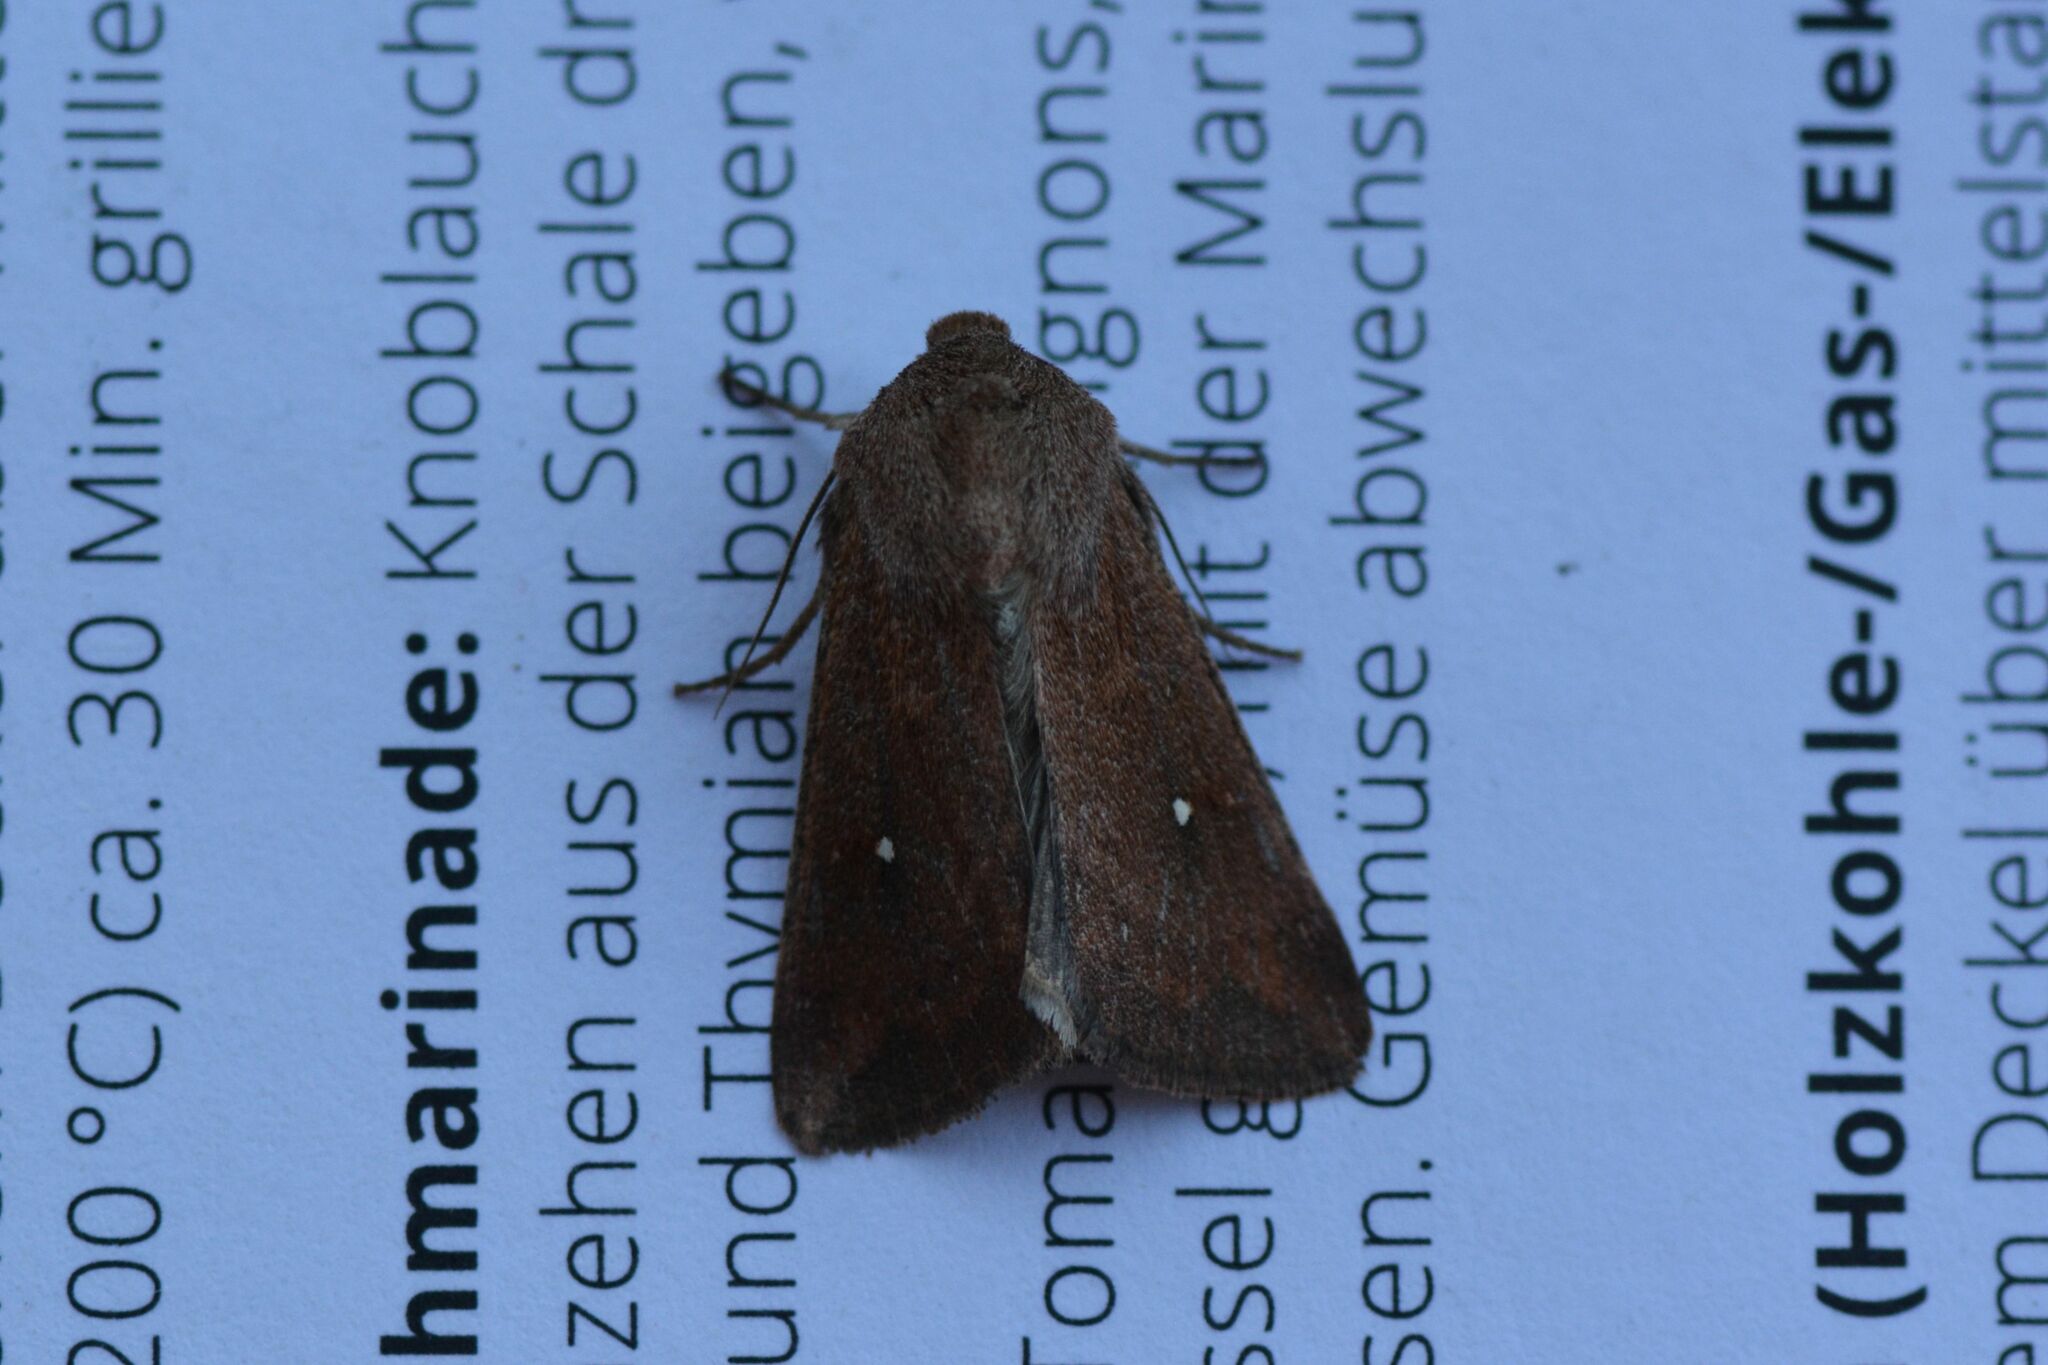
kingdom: Animalia
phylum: Arthropoda
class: Insecta
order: Lepidoptera
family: Noctuidae
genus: Mythimna
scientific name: Mythimna albipuncta
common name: White-point
